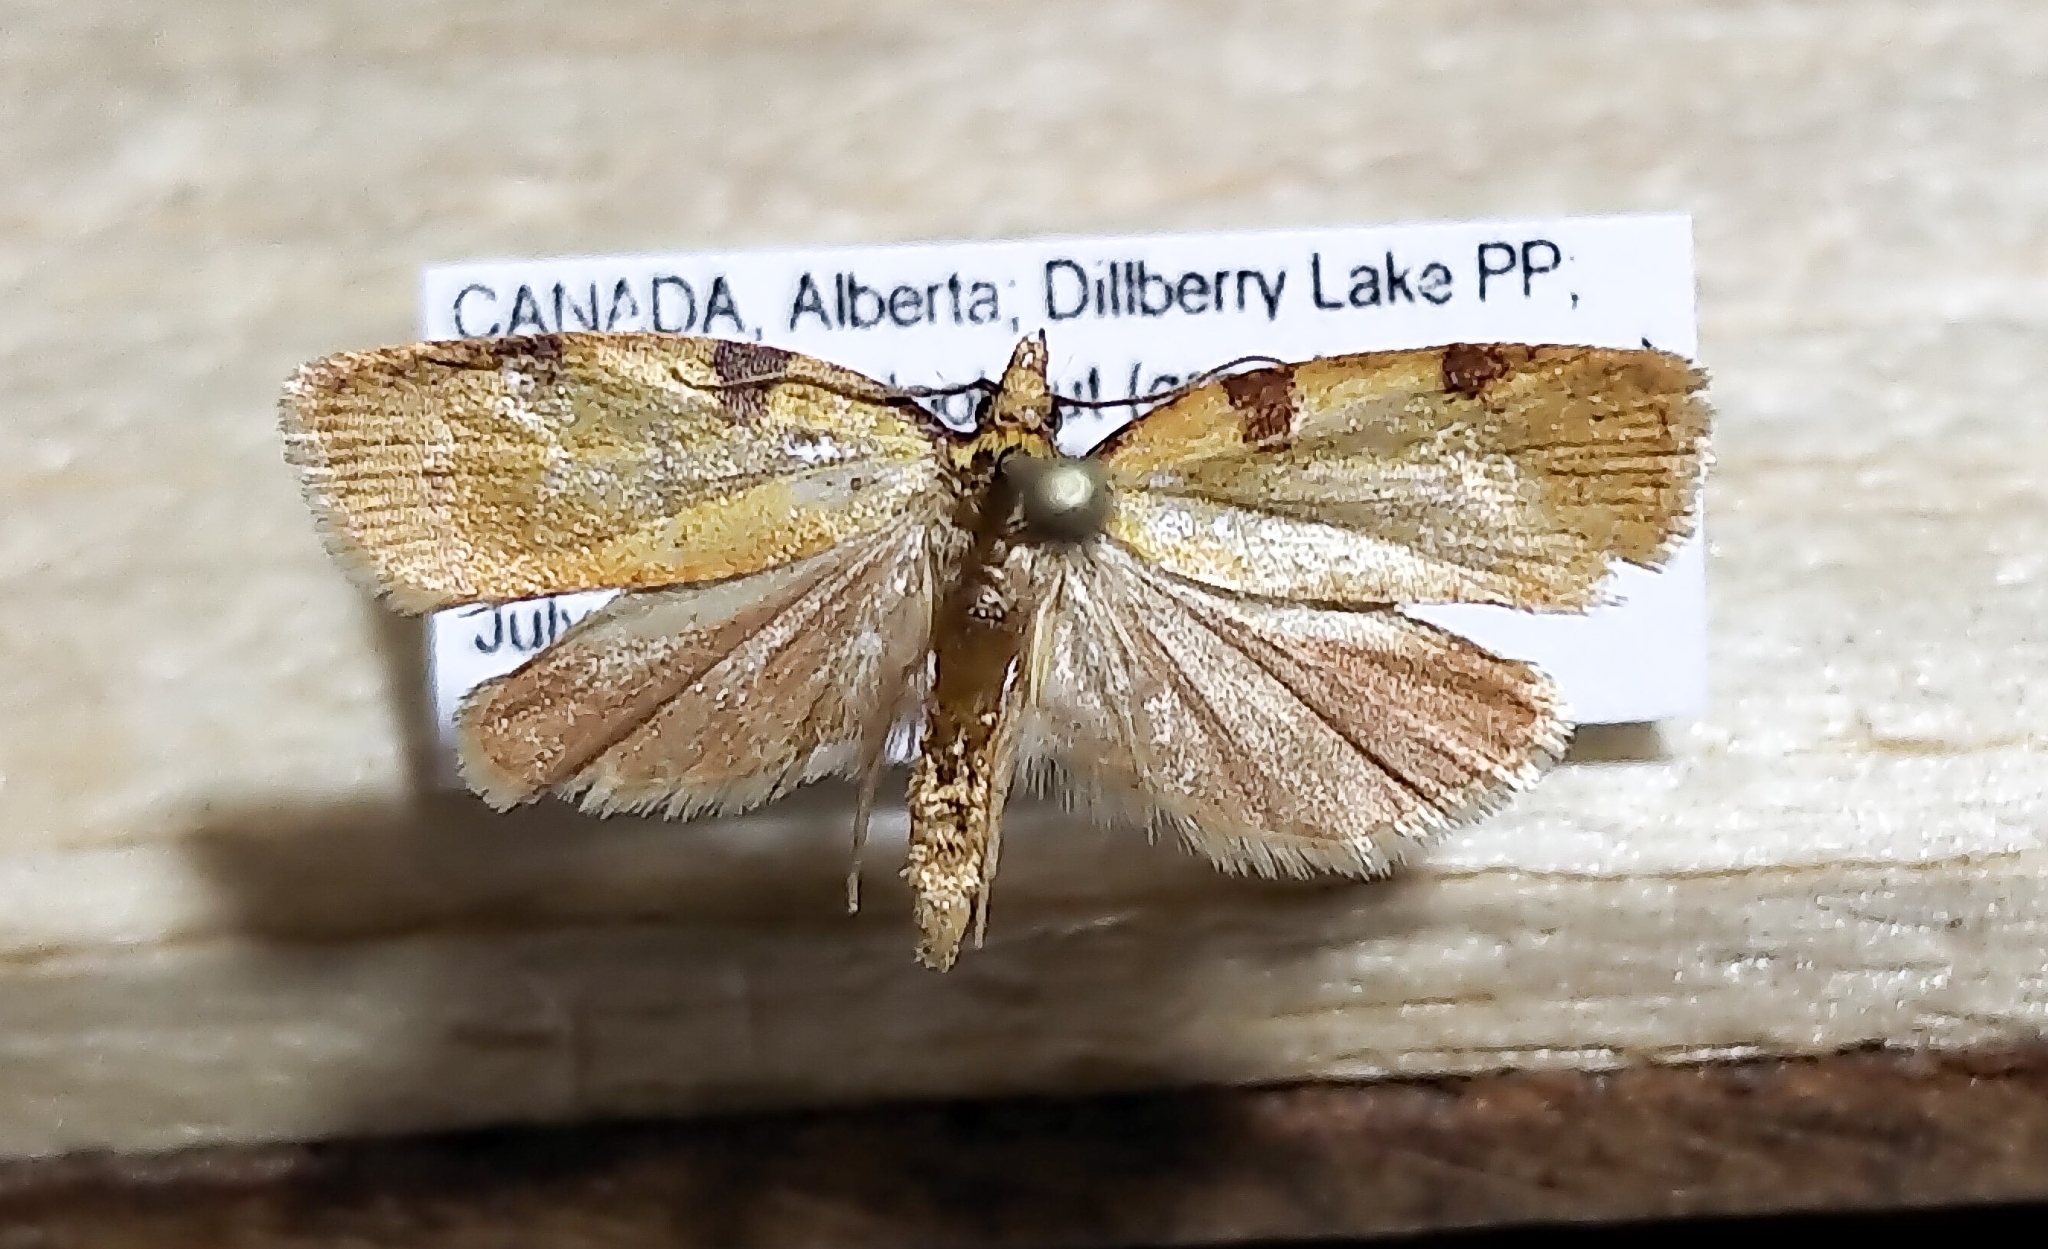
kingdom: Animalia
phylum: Arthropoda
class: Insecta
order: Lepidoptera
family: Tortricidae
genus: Cenopis
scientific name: Cenopis directana
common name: Chokecherry leafroller moth
